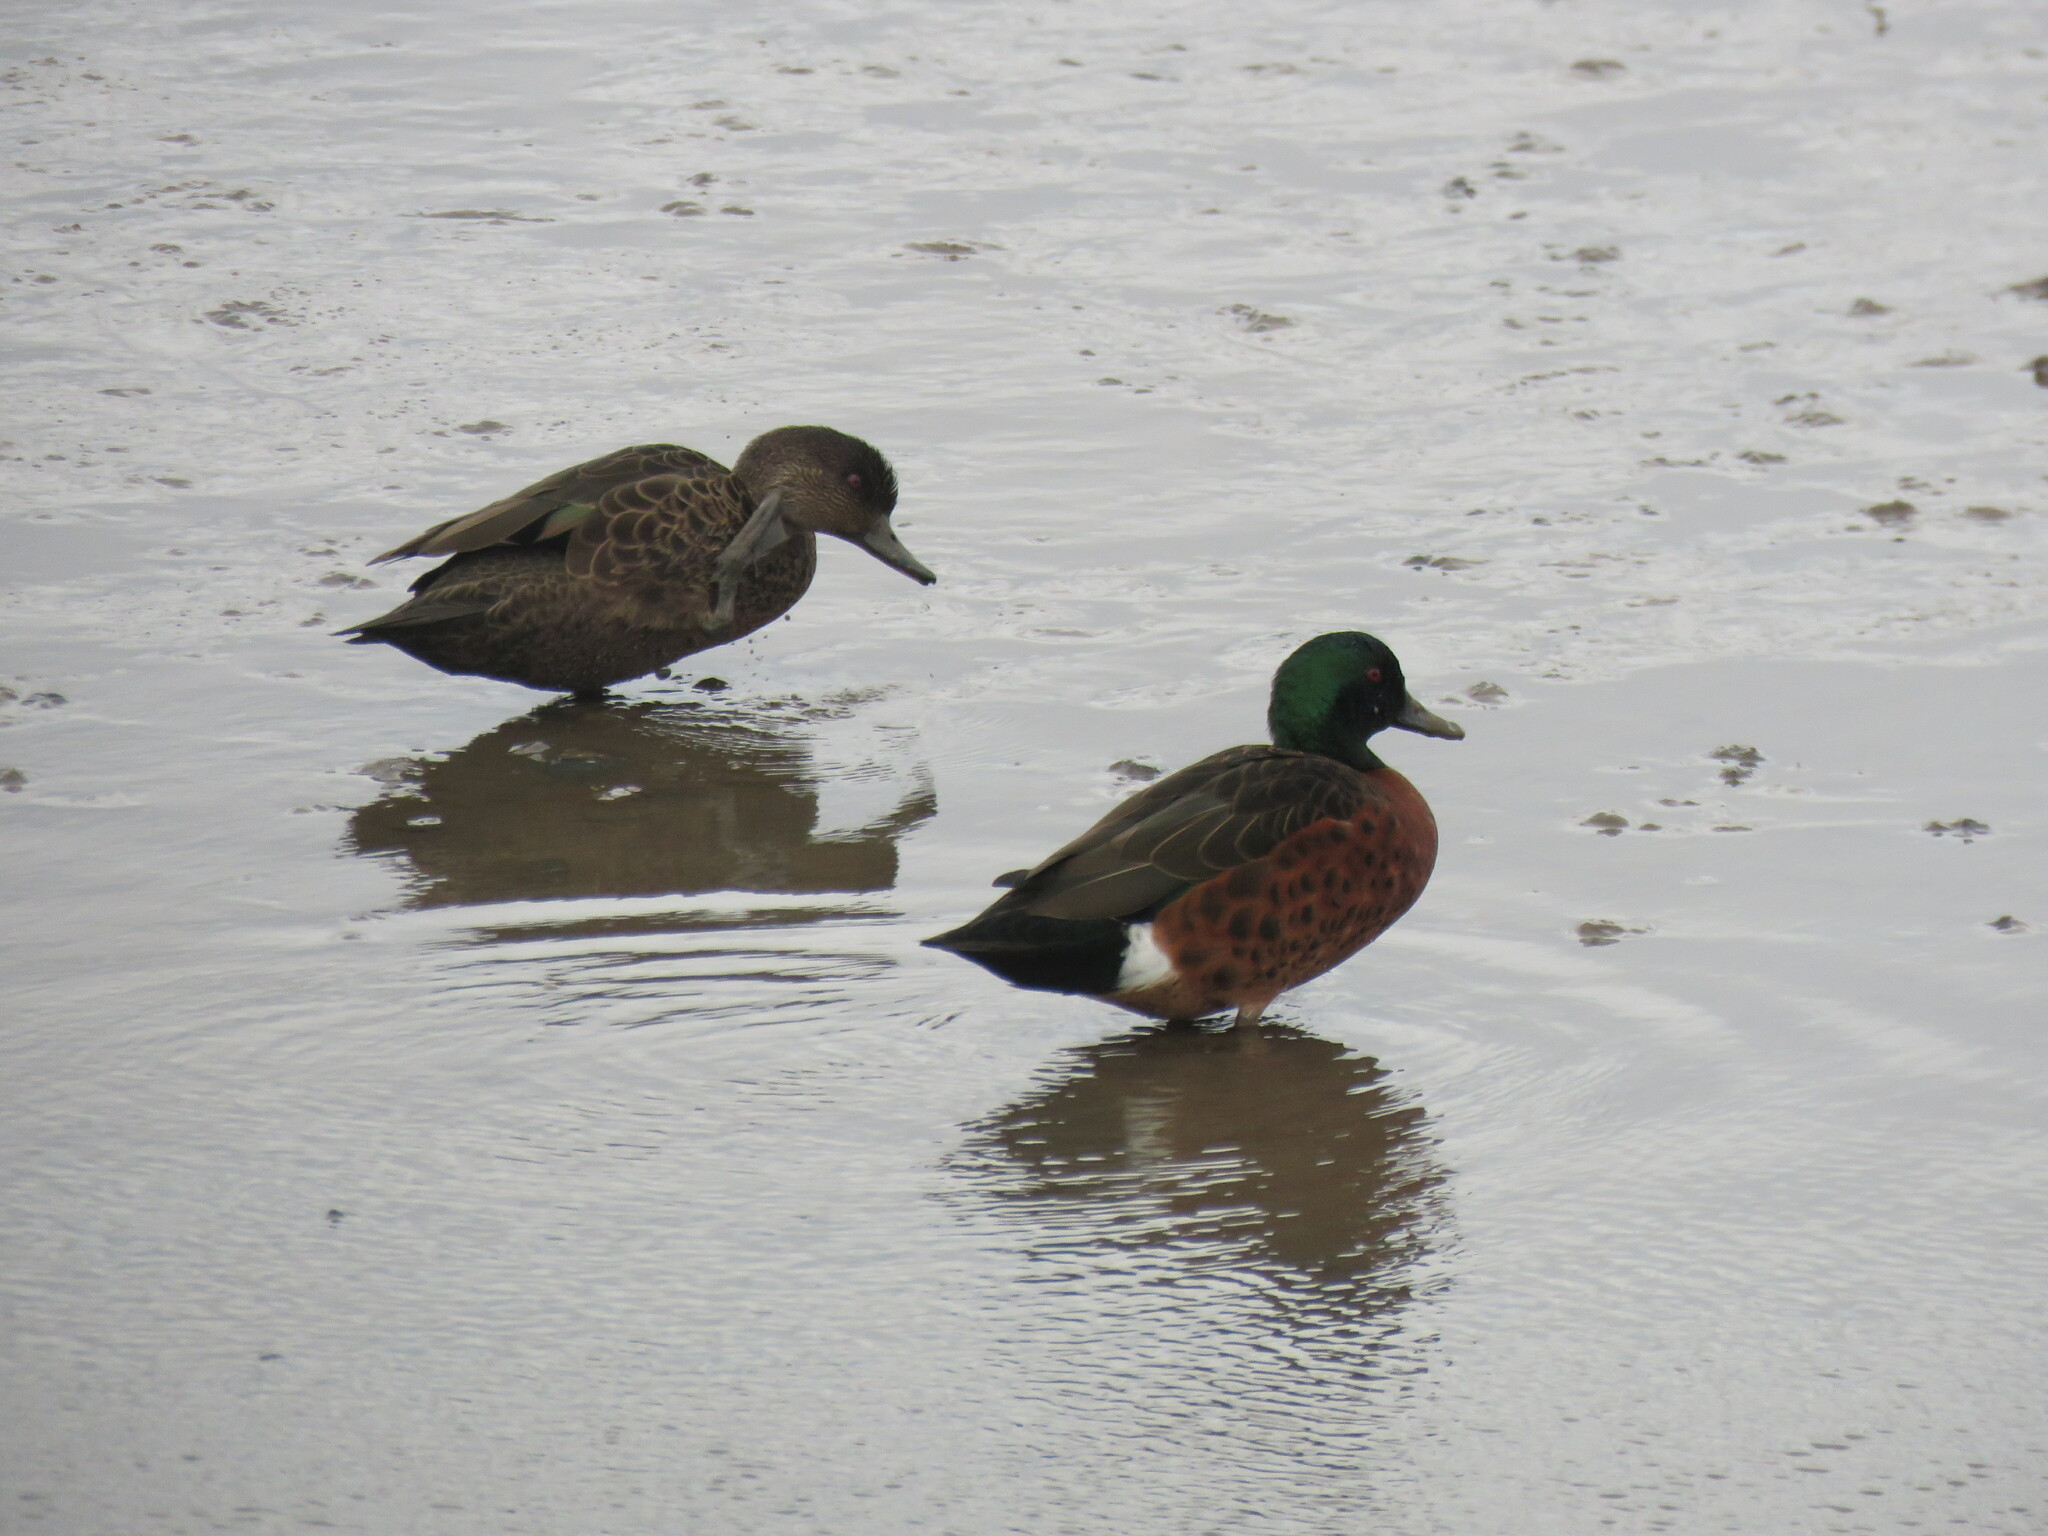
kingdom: Animalia
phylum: Chordata
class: Aves
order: Anseriformes
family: Anatidae
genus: Anas
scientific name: Anas castanea
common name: Chestnut teal
